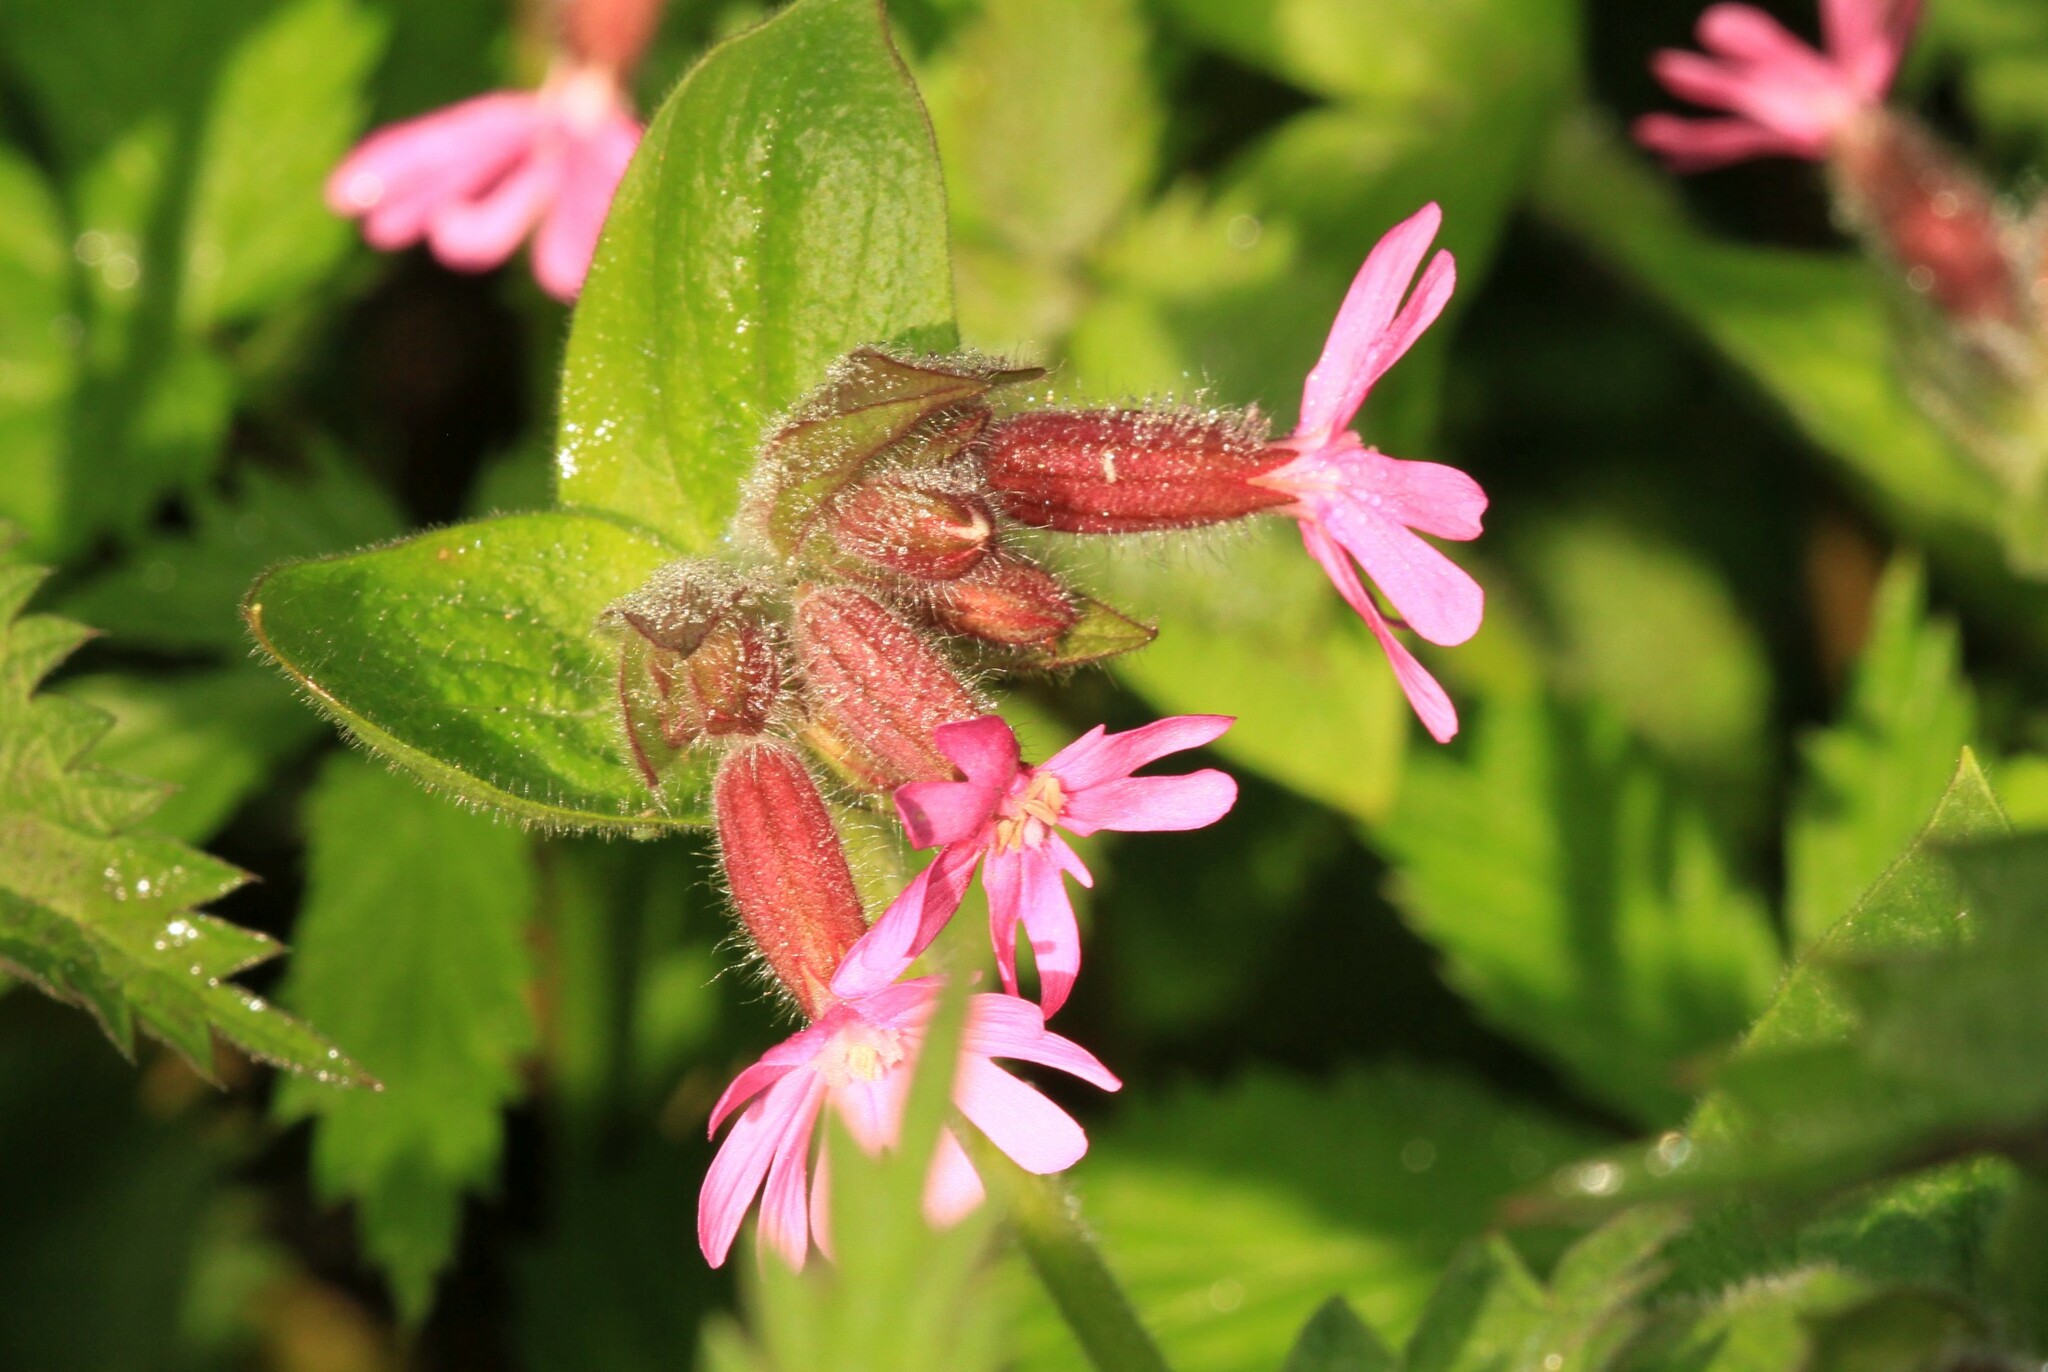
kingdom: Plantae
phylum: Tracheophyta
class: Magnoliopsida
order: Caryophyllales
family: Caryophyllaceae
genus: Silene
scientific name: Silene dioica
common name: Red campion
